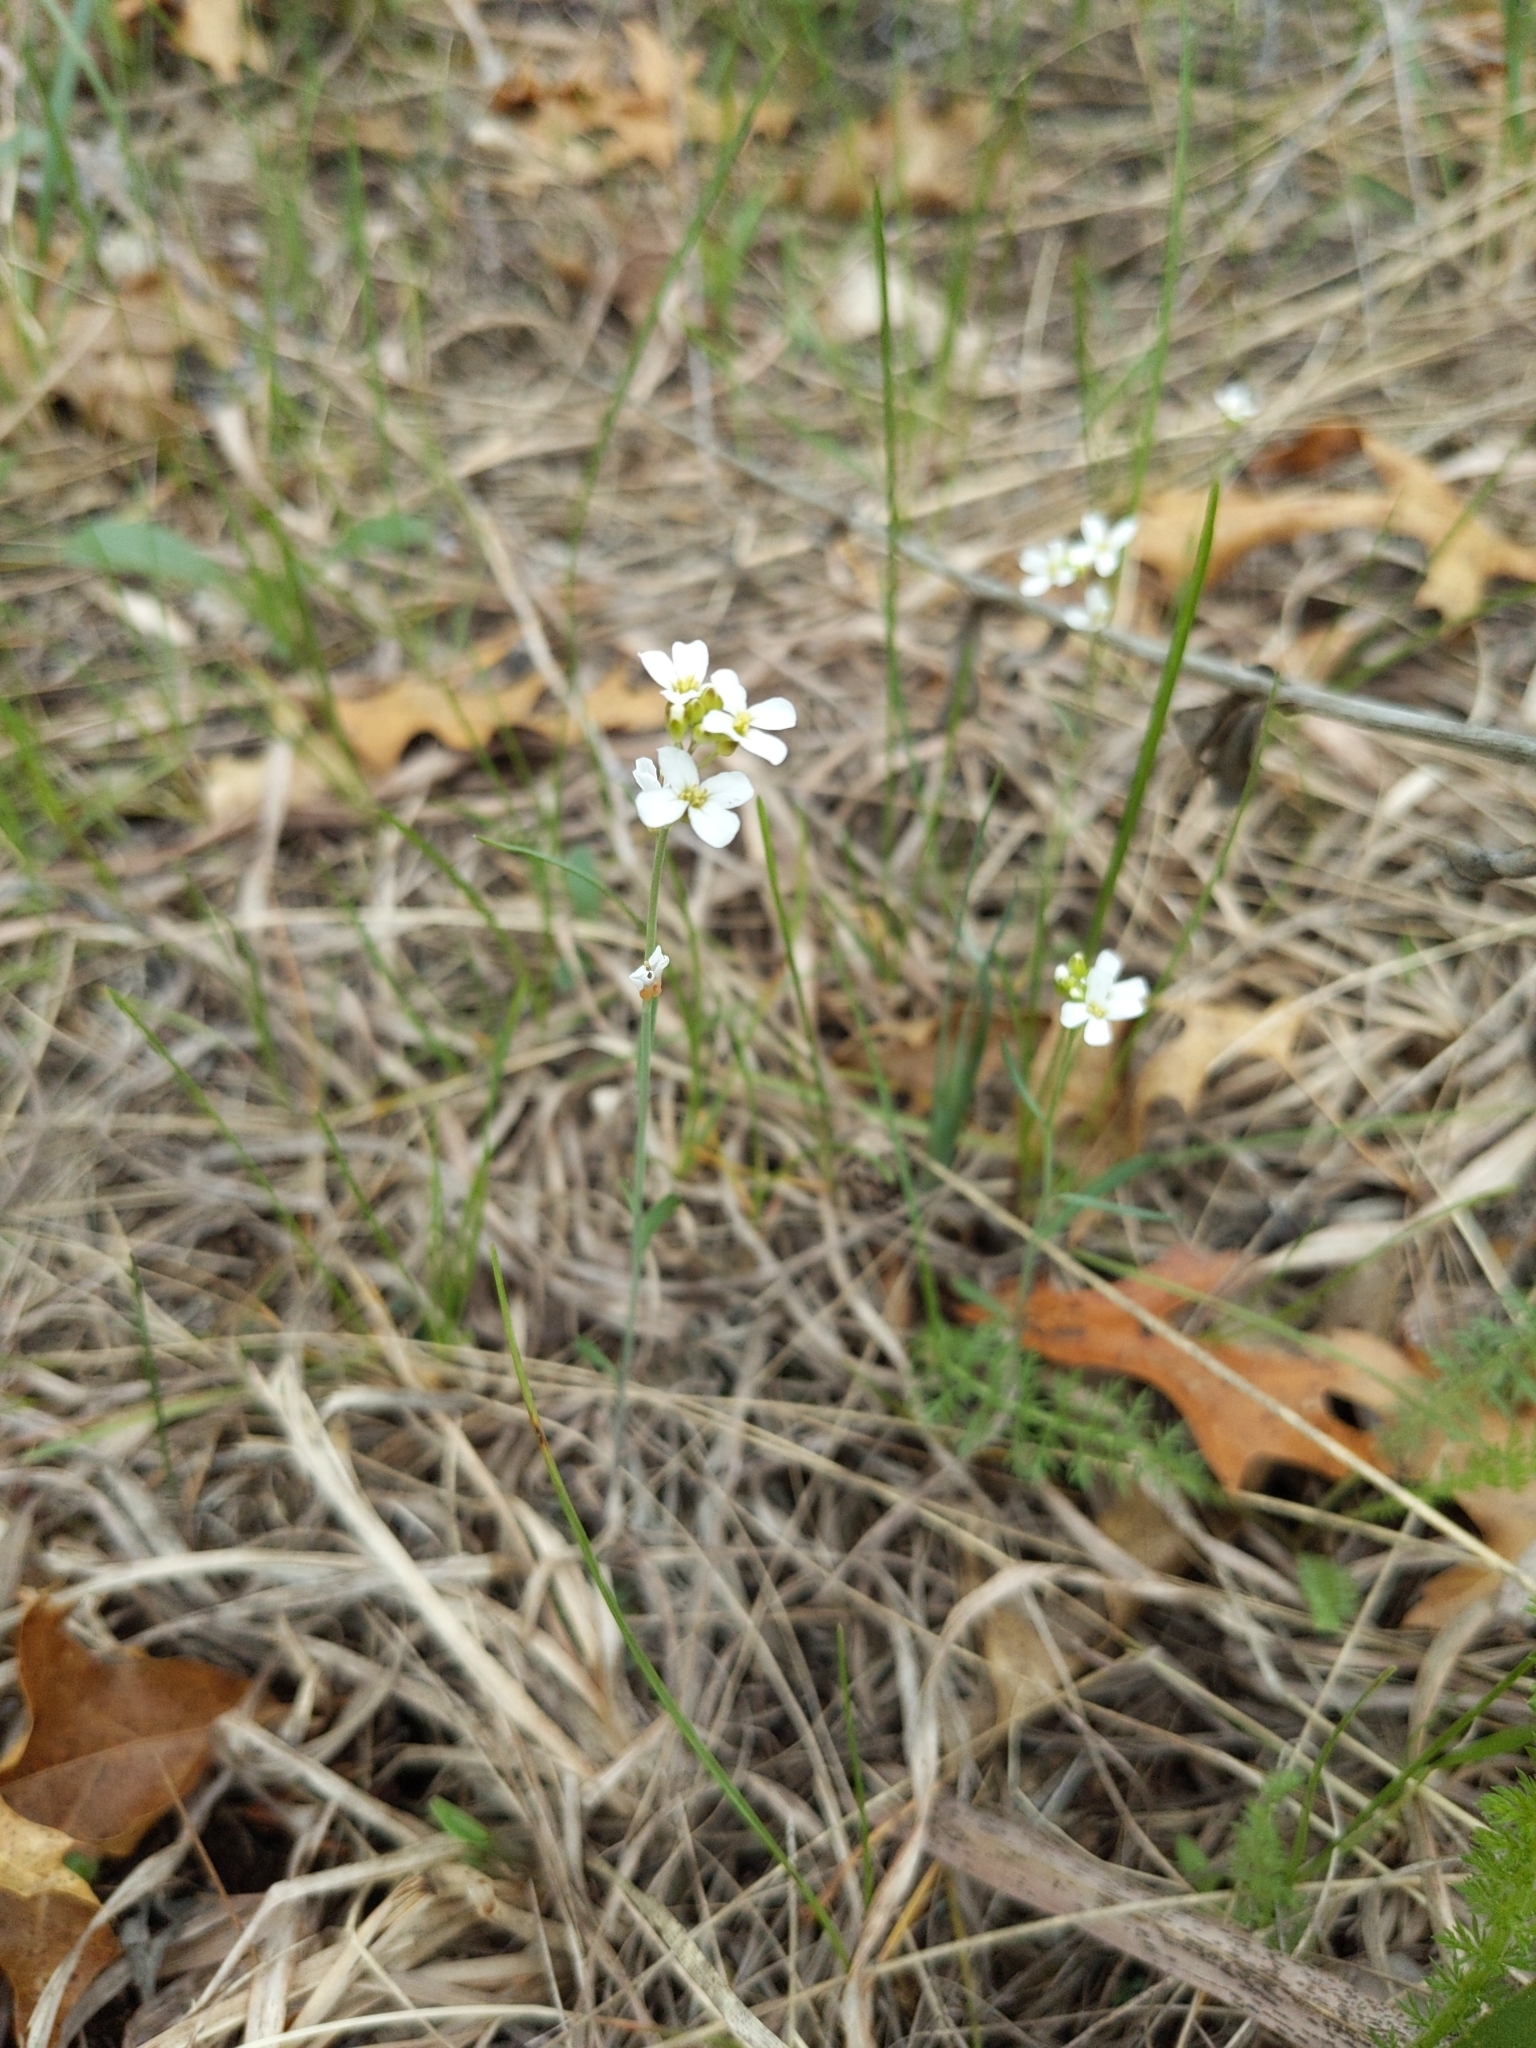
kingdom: Plantae
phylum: Tracheophyta
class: Magnoliopsida
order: Brassicales
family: Brassicaceae
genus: Arabidopsis
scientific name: Arabidopsis lyrata
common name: Lyrate rockcress
